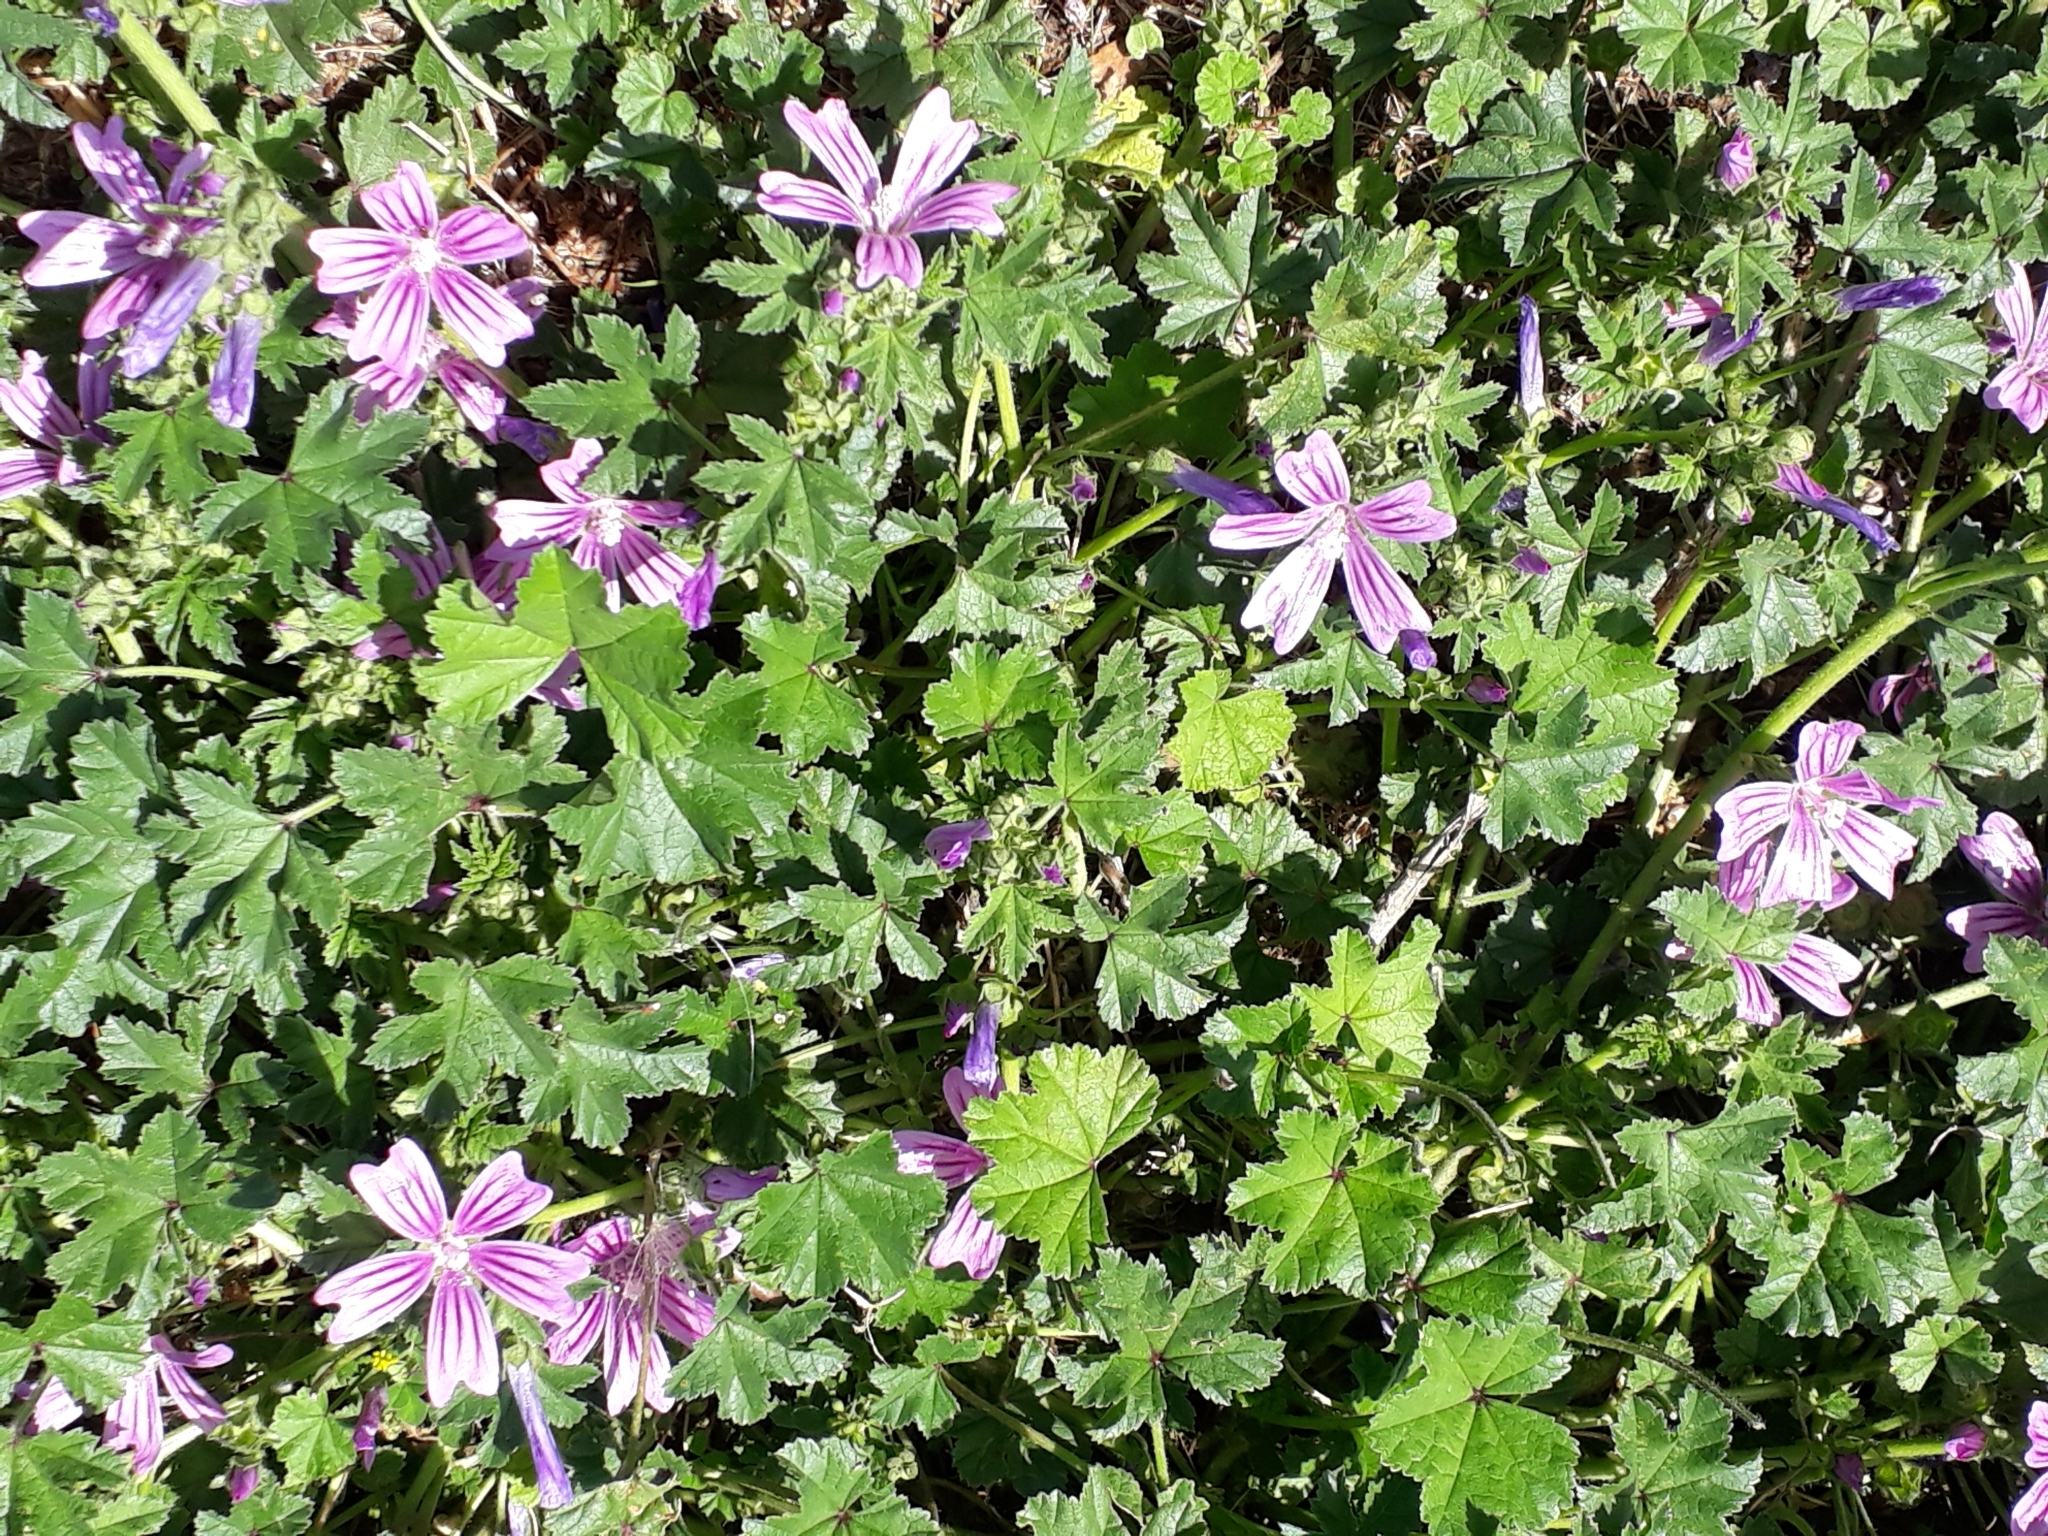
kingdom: Plantae
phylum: Tracheophyta
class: Magnoliopsida
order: Malvales
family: Malvaceae
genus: Malva
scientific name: Malva sylvestris
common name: Common mallow
